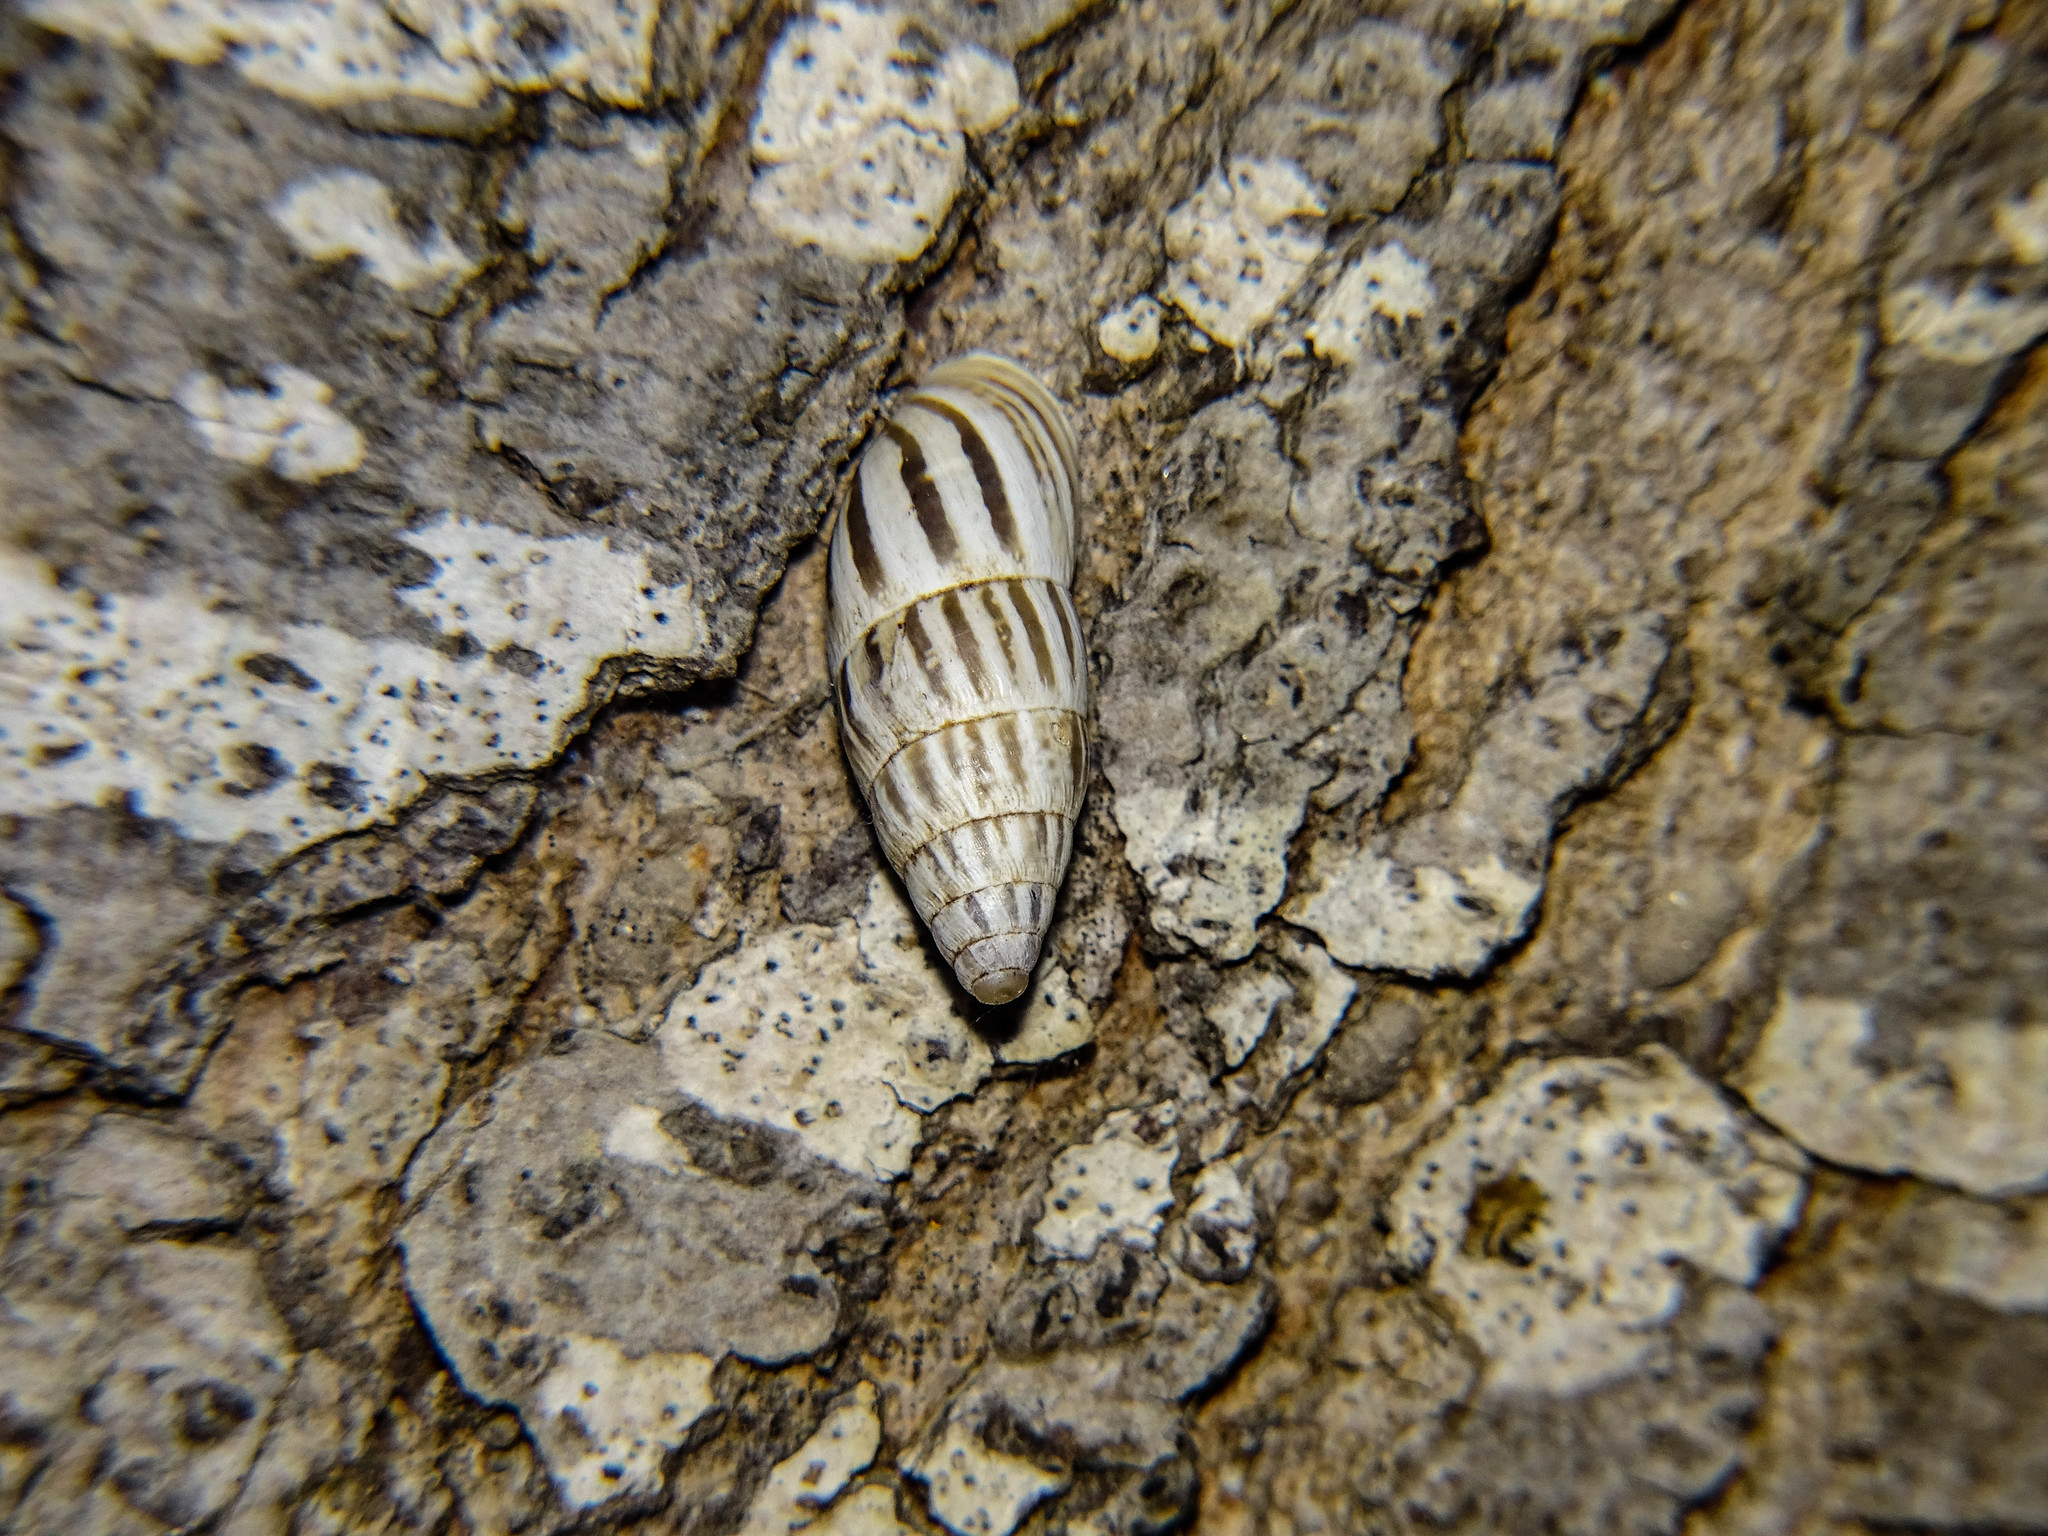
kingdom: Animalia
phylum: Mollusca
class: Gastropoda
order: Stylommatophora
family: Enidae
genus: Zebrina
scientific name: Zebrina fasciolata
